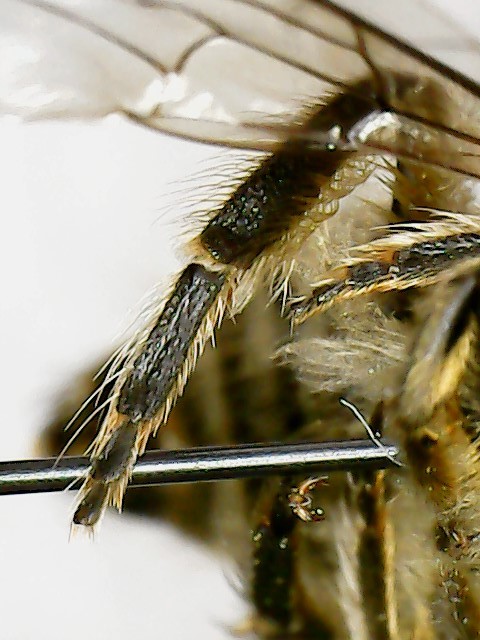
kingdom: Animalia
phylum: Arthropoda
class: Insecta
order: Hymenoptera
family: Colletidae
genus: Colletes
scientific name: Colletes inaequalis
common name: Unequal cellophane bee
